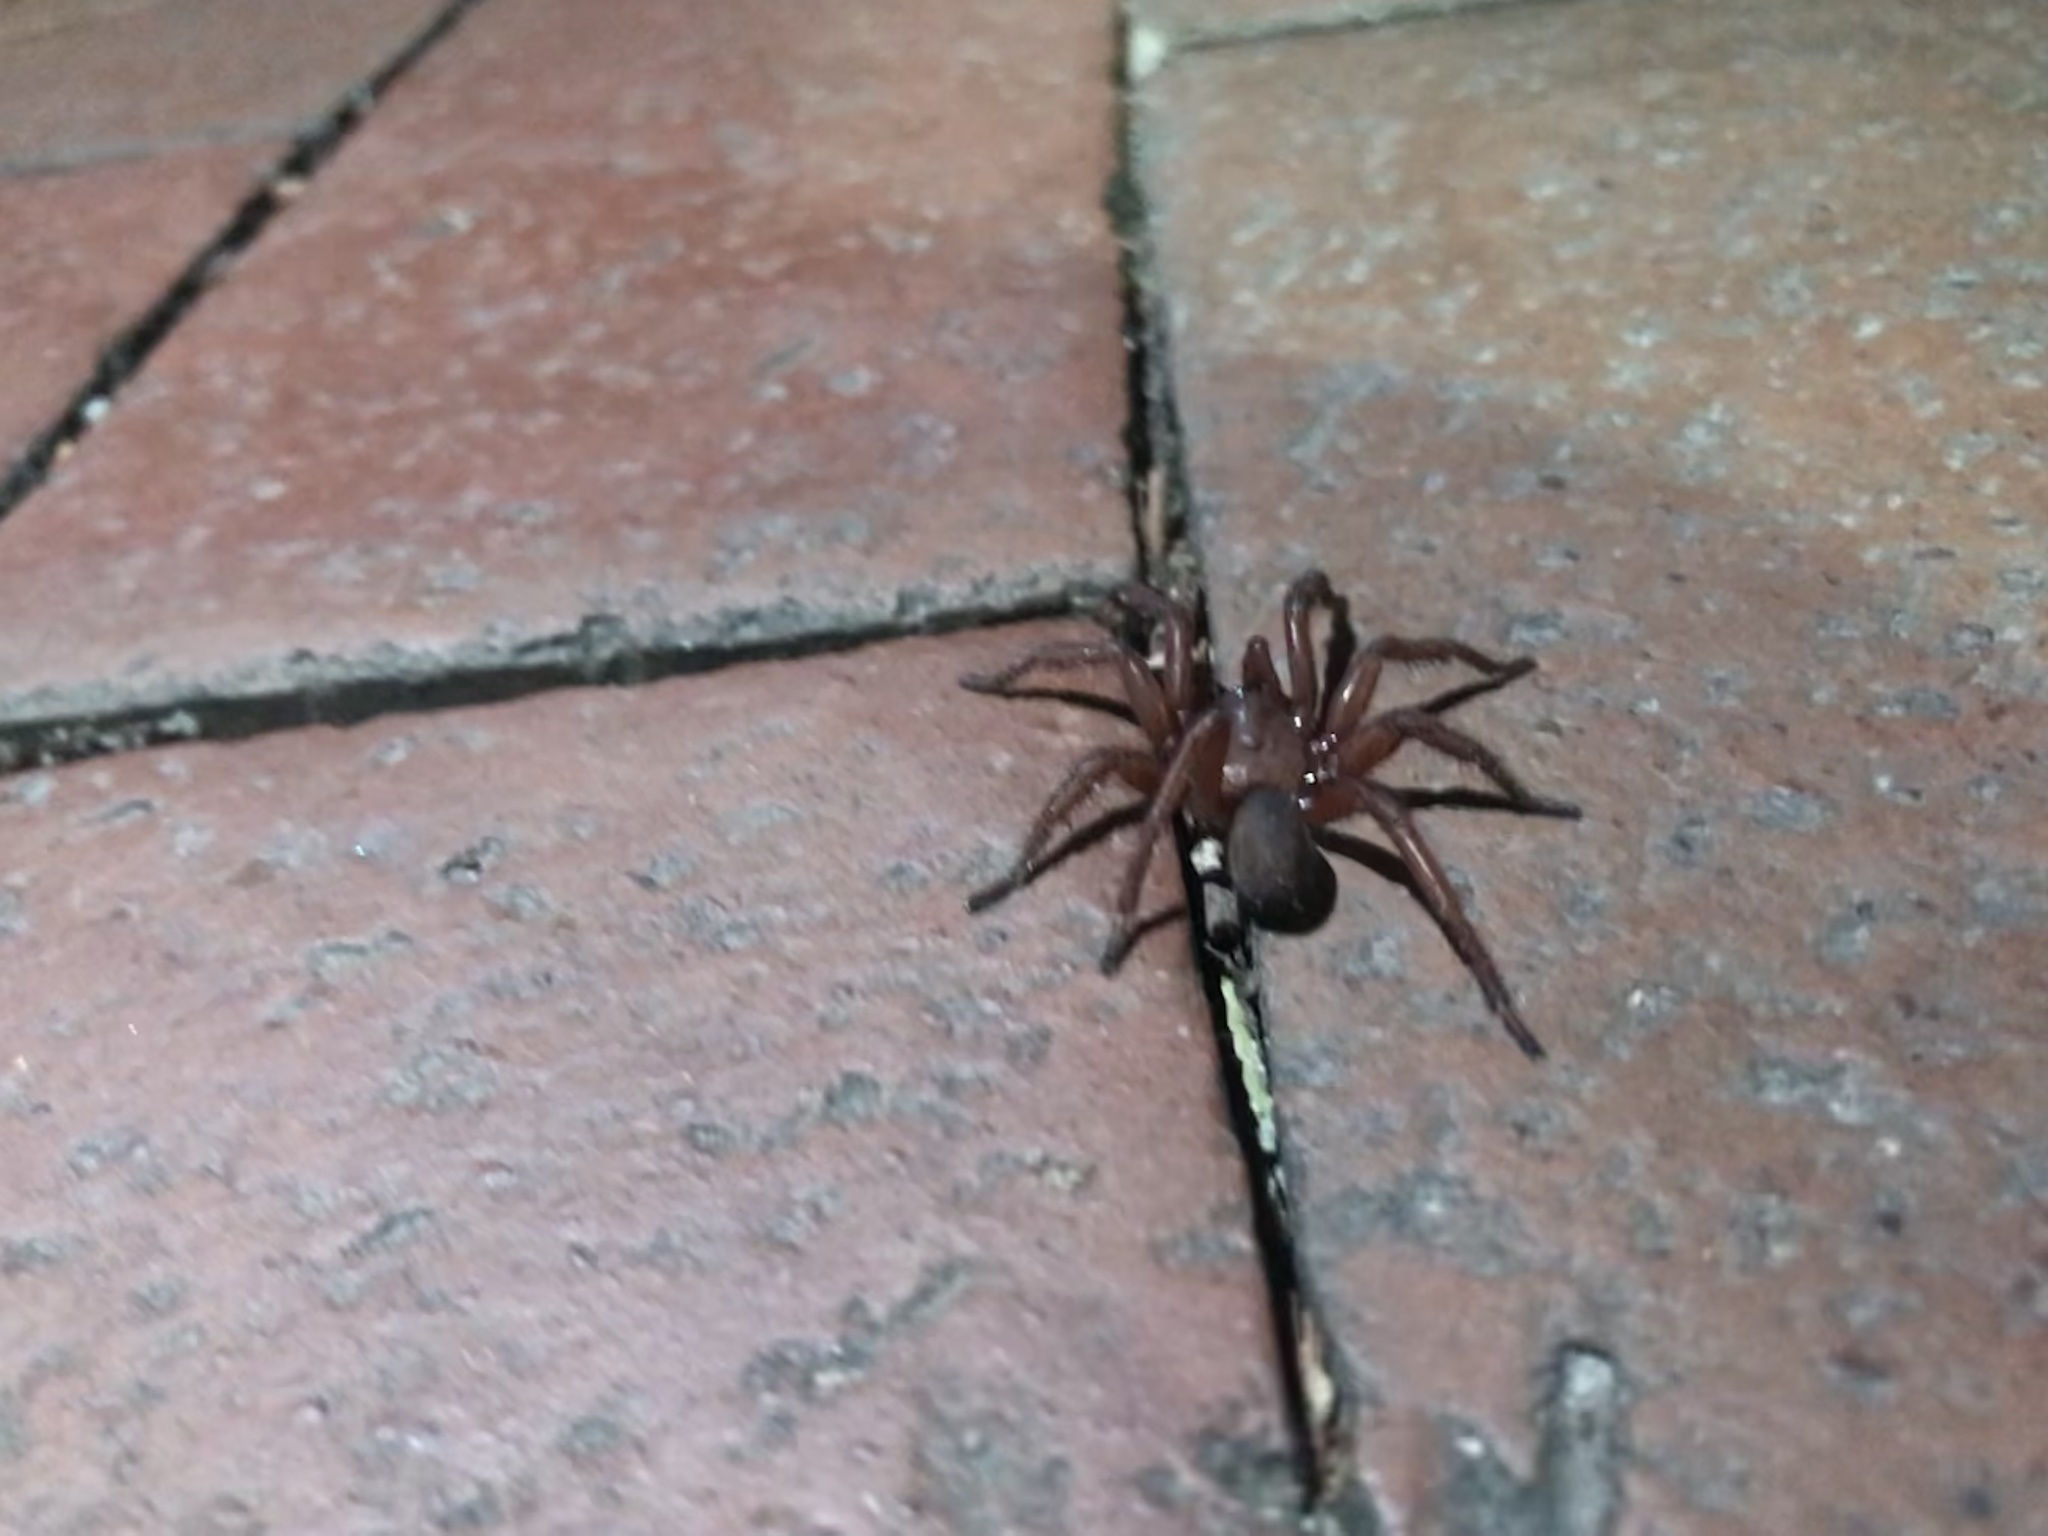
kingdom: Animalia
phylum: Arthropoda
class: Arachnida
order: Araneae
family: Filistatidae
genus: Kukulcania
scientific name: Kukulcania hibernalis
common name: Crevice weaver
